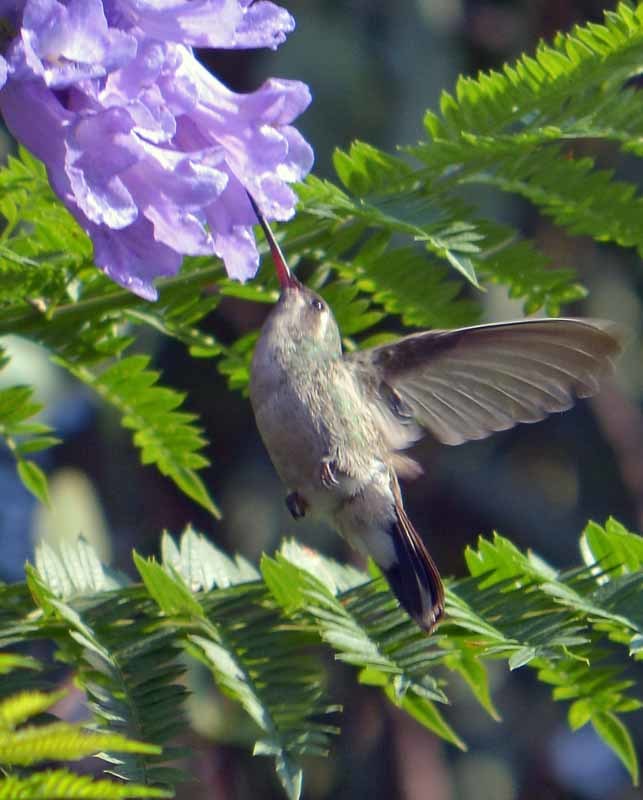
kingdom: Animalia
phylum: Chordata
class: Aves
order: Apodiformes
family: Trochilidae
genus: Cynanthus
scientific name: Cynanthus latirostris
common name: Broad-billed hummingbird
